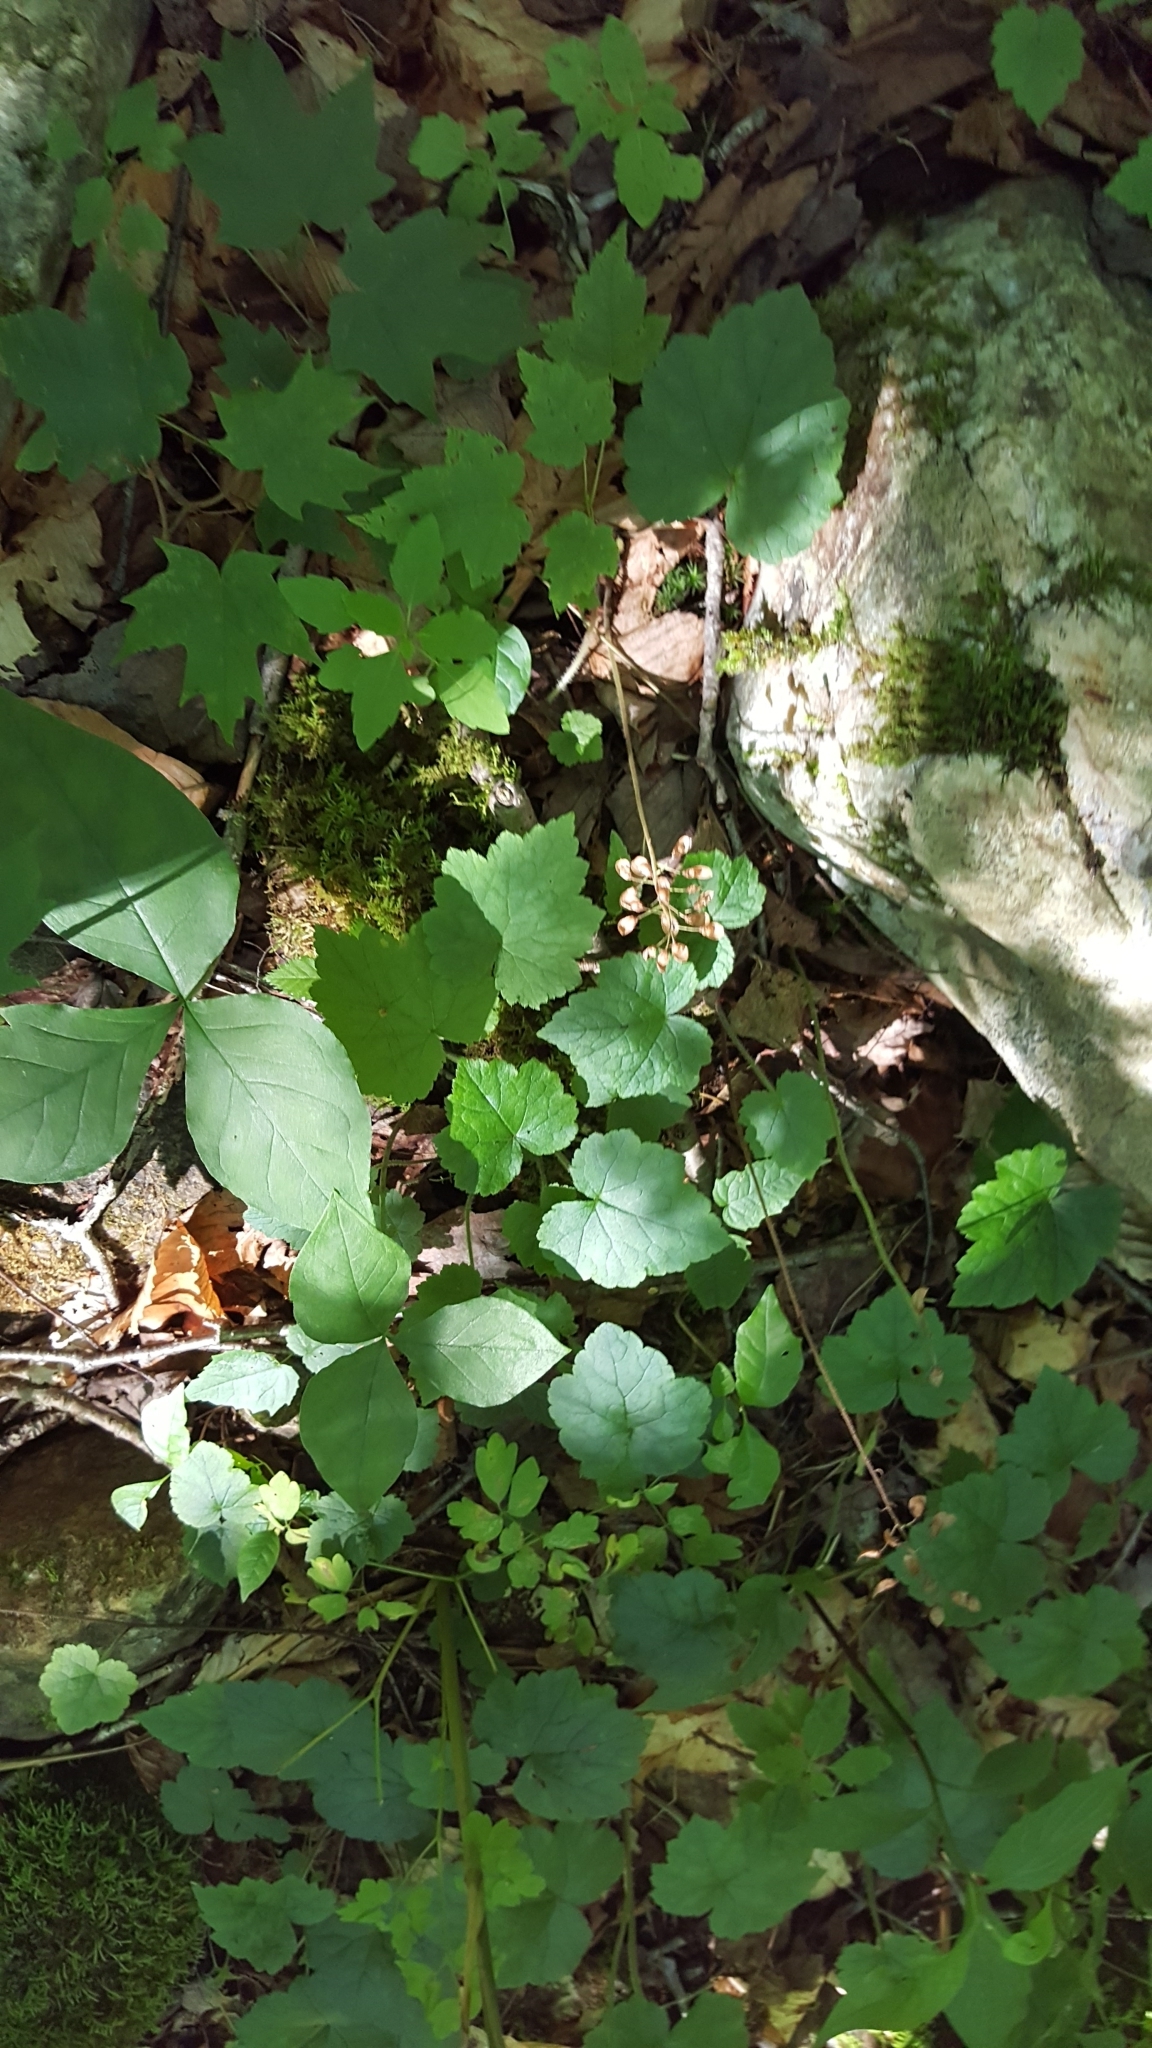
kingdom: Plantae
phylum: Tracheophyta
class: Magnoliopsida
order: Saxifragales
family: Saxifragaceae
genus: Tiarella
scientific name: Tiarella stolonifera
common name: Stoloniferous foamflower
